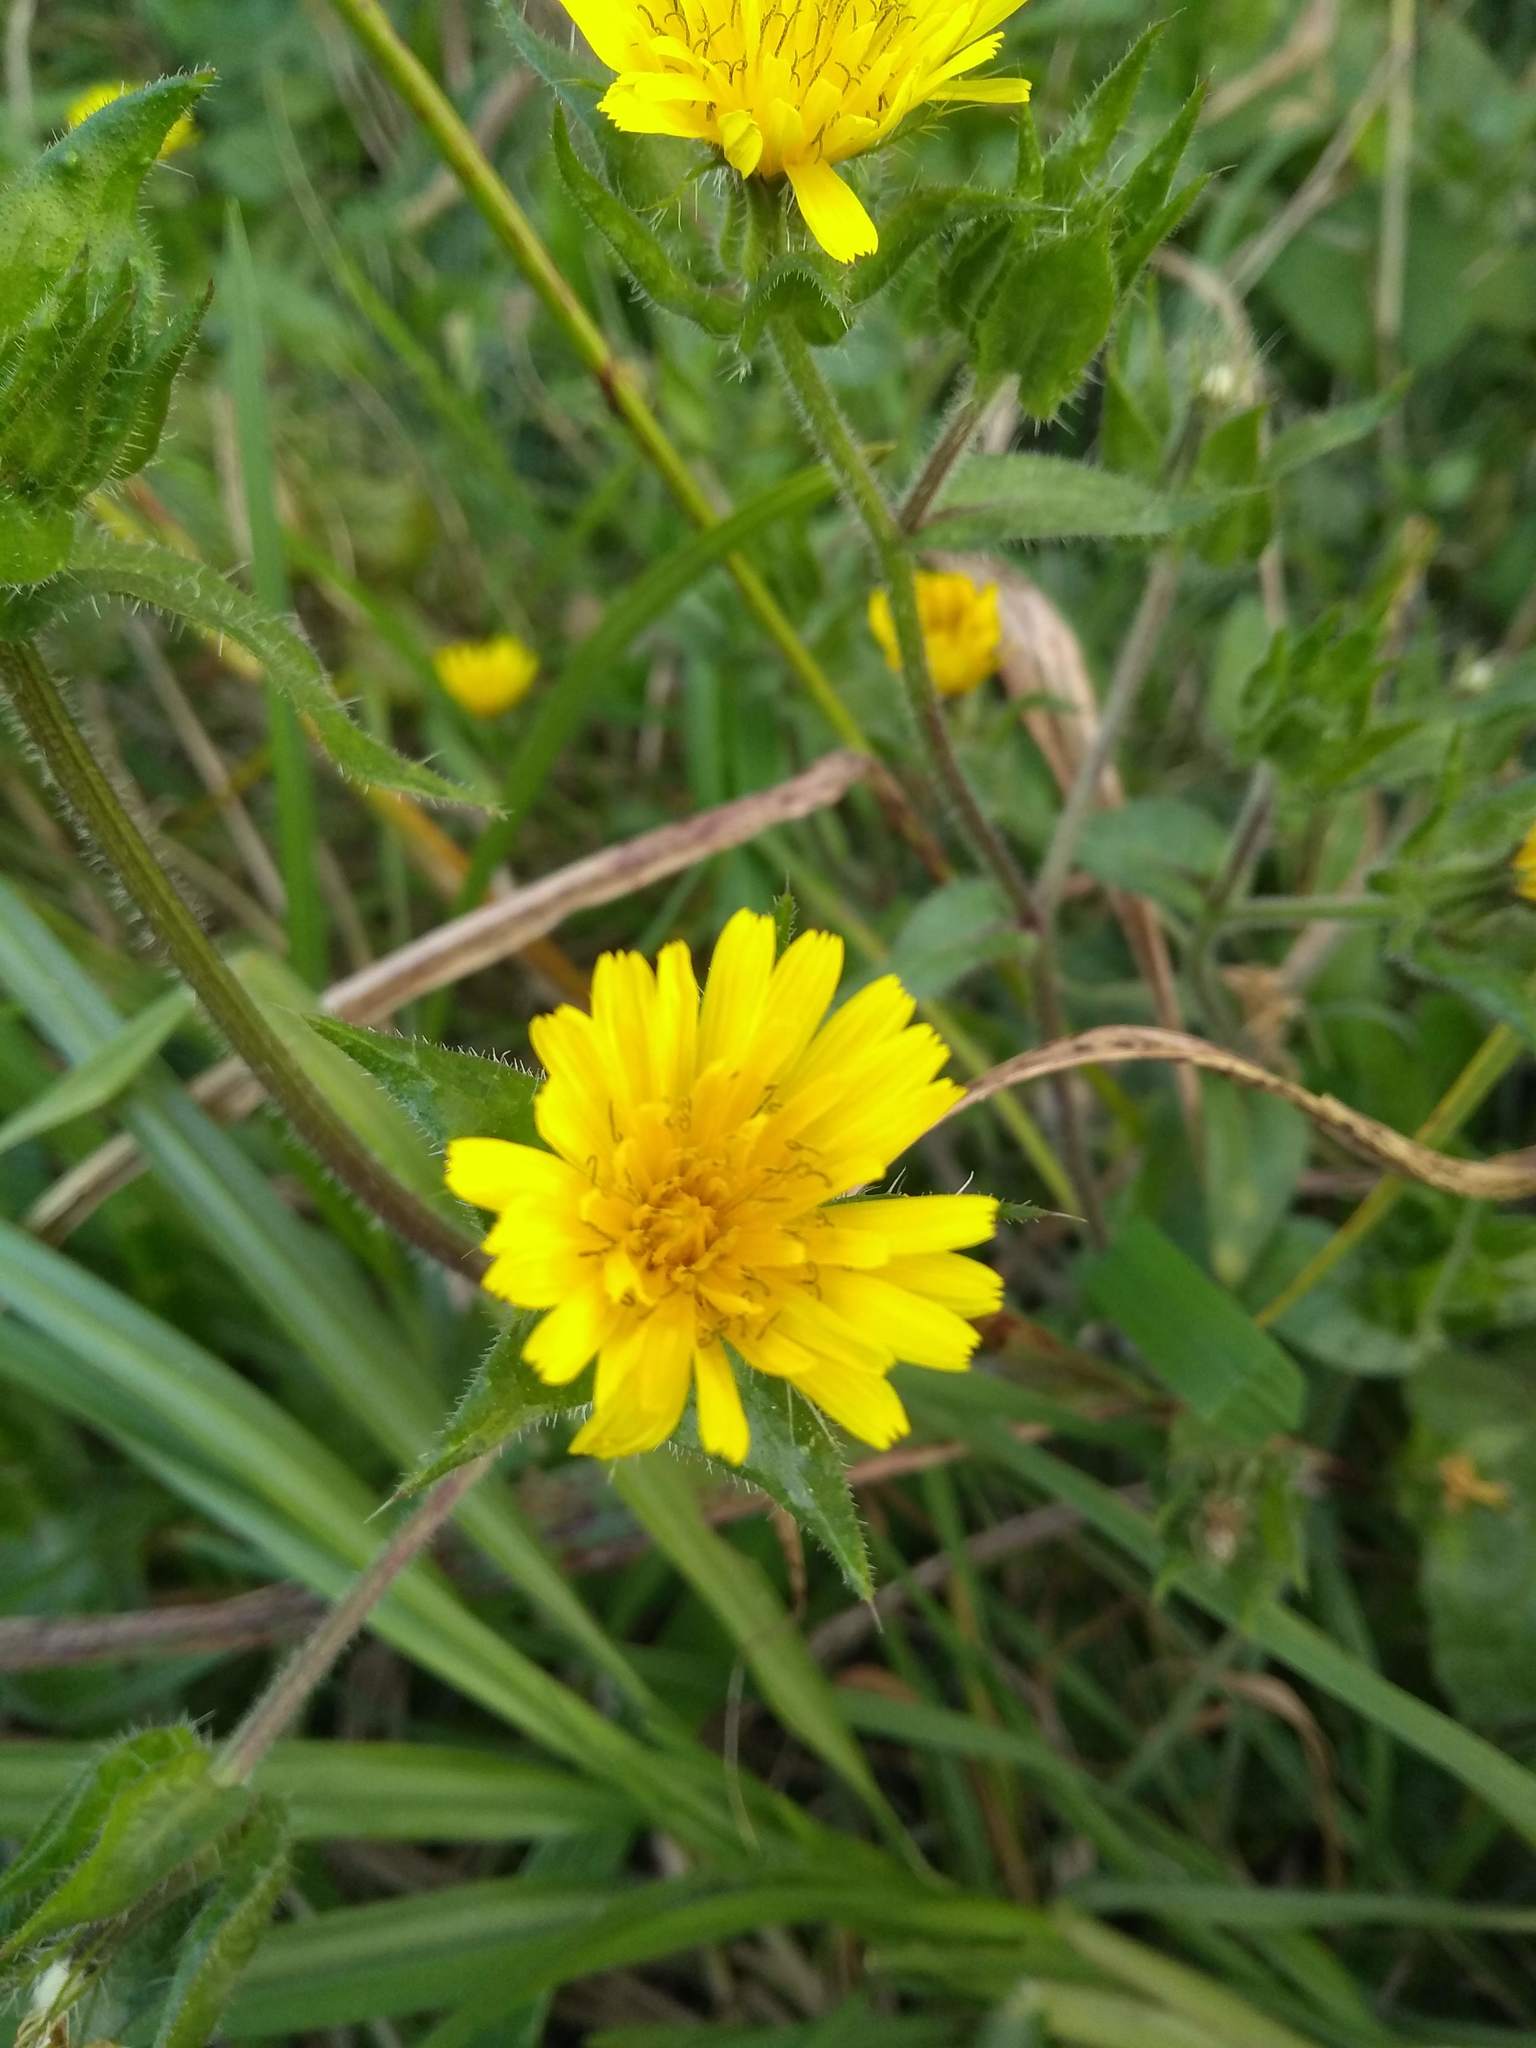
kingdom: Plantae
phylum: Tracheophyta
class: Magnoliopsida
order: Asterales
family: Asteraceae
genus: Helminthotheca
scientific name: Helminthotheca echioides
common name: Ox-tongue
